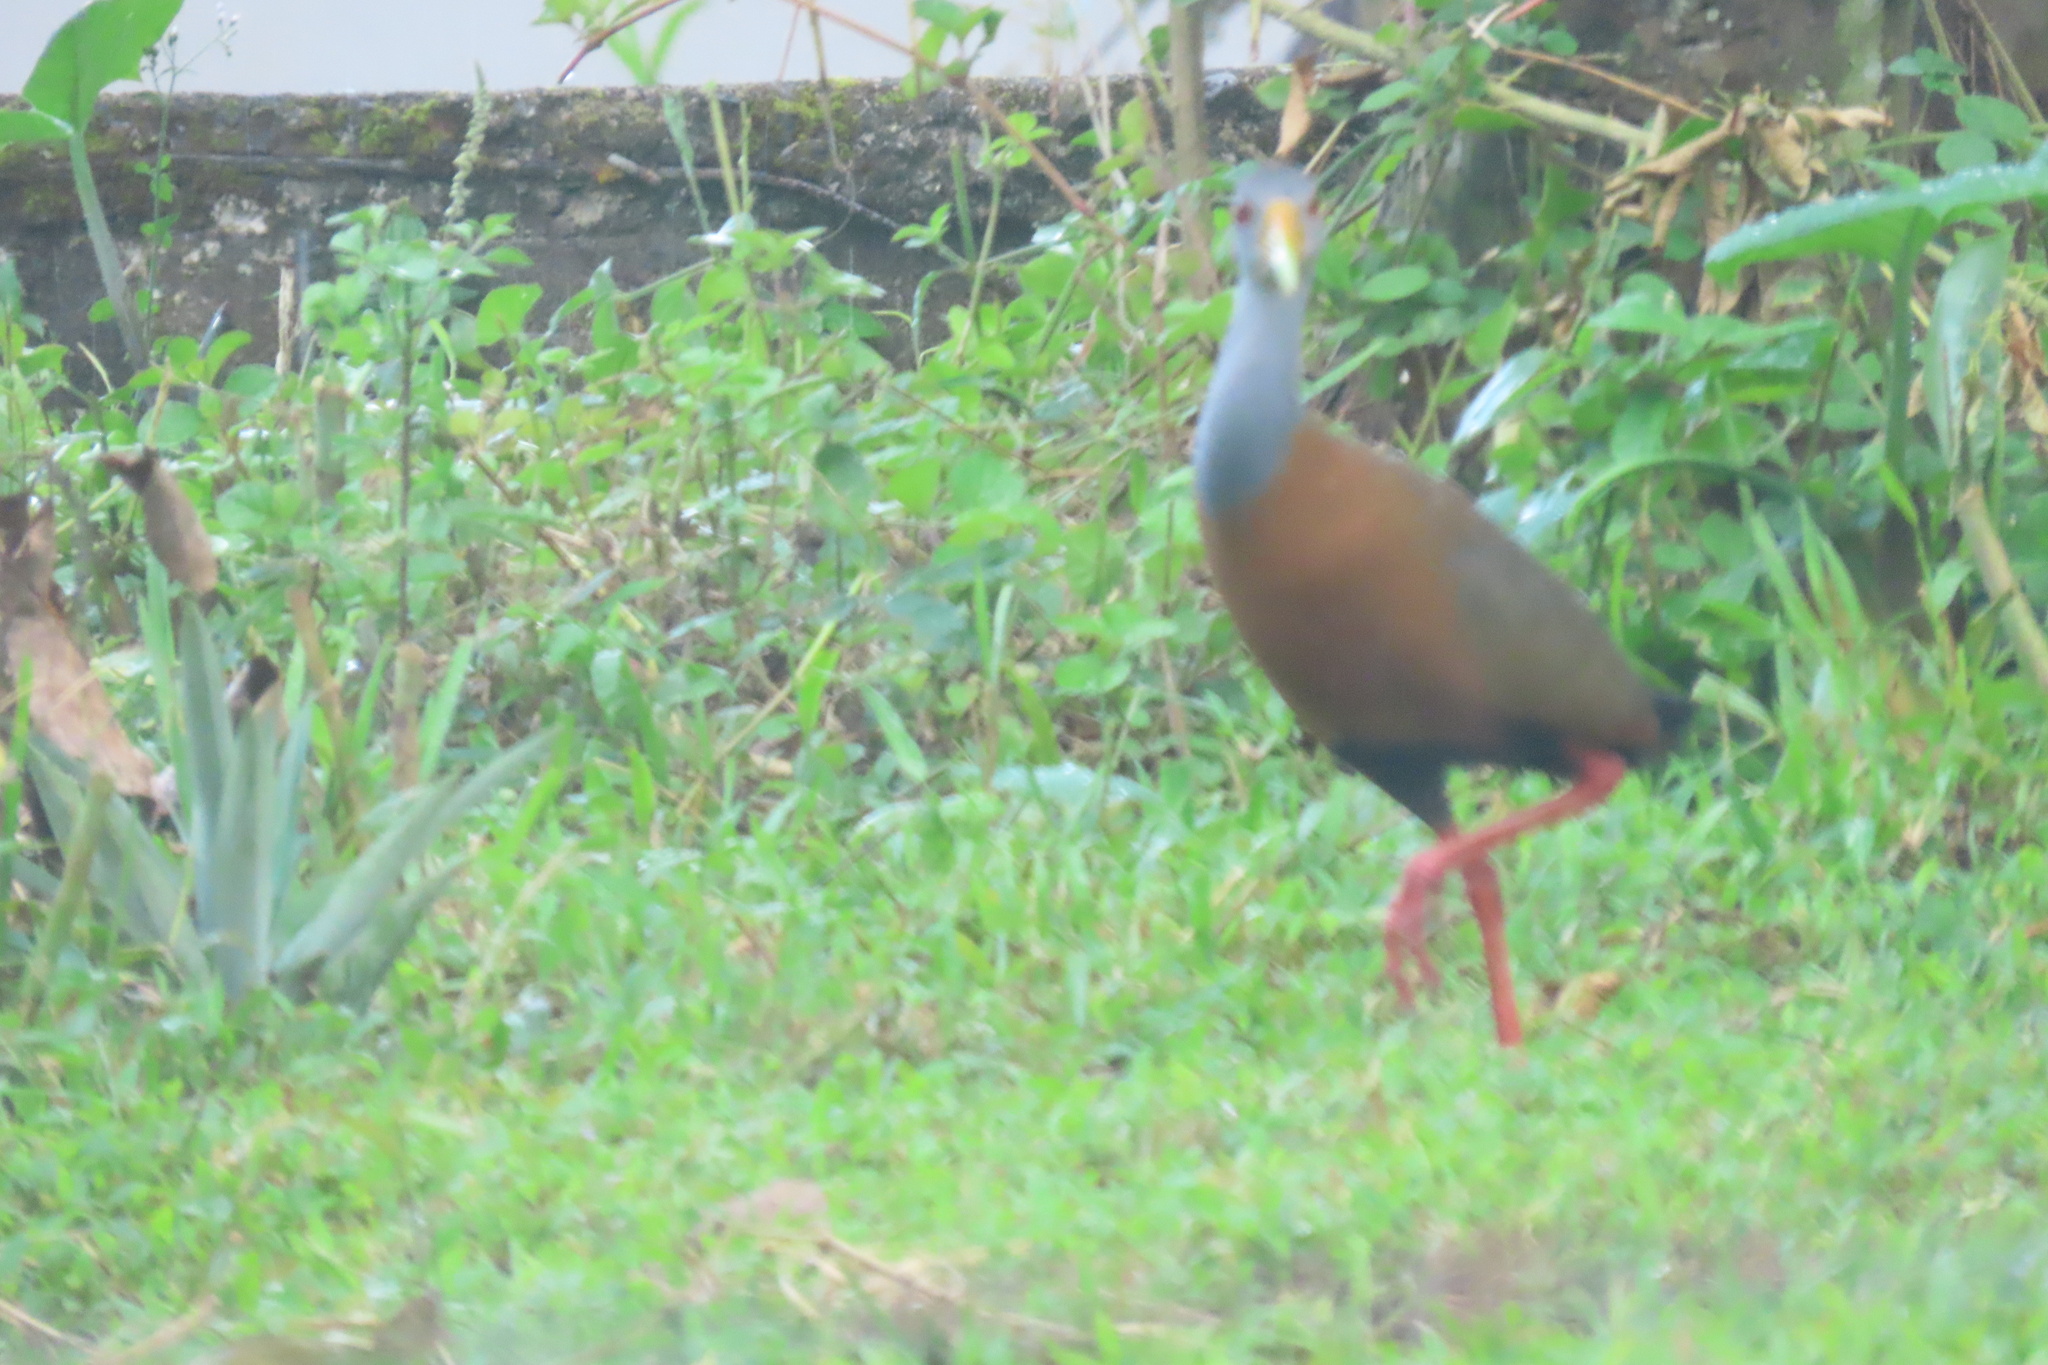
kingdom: Animalia
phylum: Chordata
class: Aves
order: Gruiformes
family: Rallidae
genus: Aramides
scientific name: Aramides albiventris
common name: Russet-naped wood-rail
